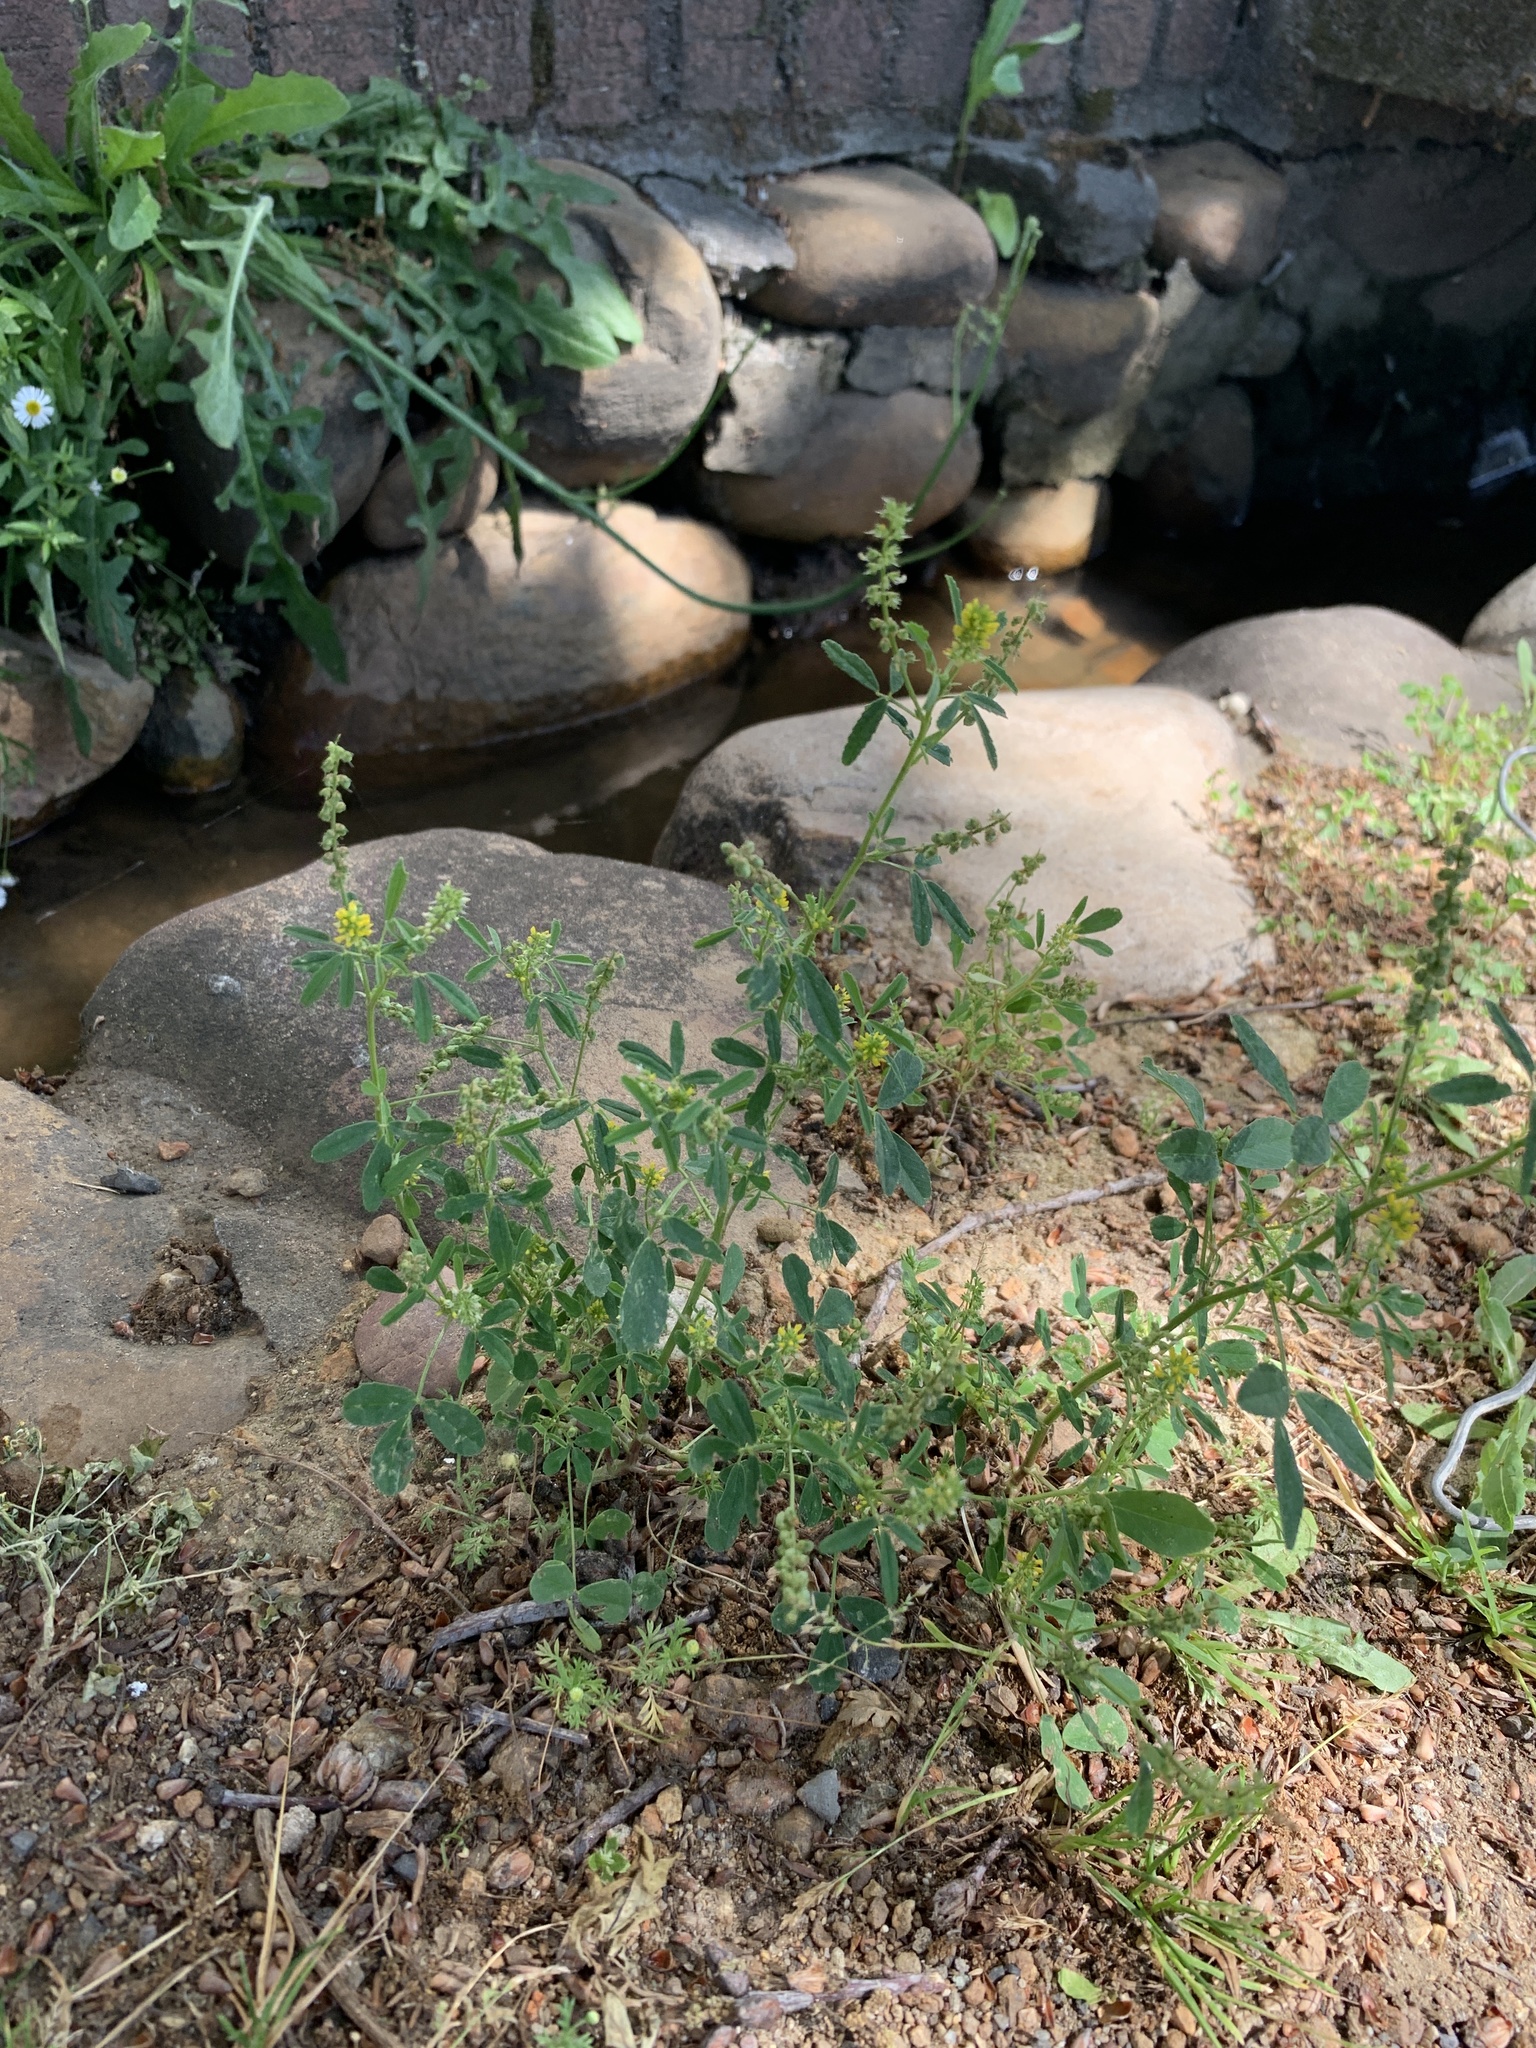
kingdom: Plantae
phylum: Tracheophyta
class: Magnoliopsida
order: Fabales
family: Fabaceae
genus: Melilotus
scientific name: Melilotus indicus
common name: Small melilot
